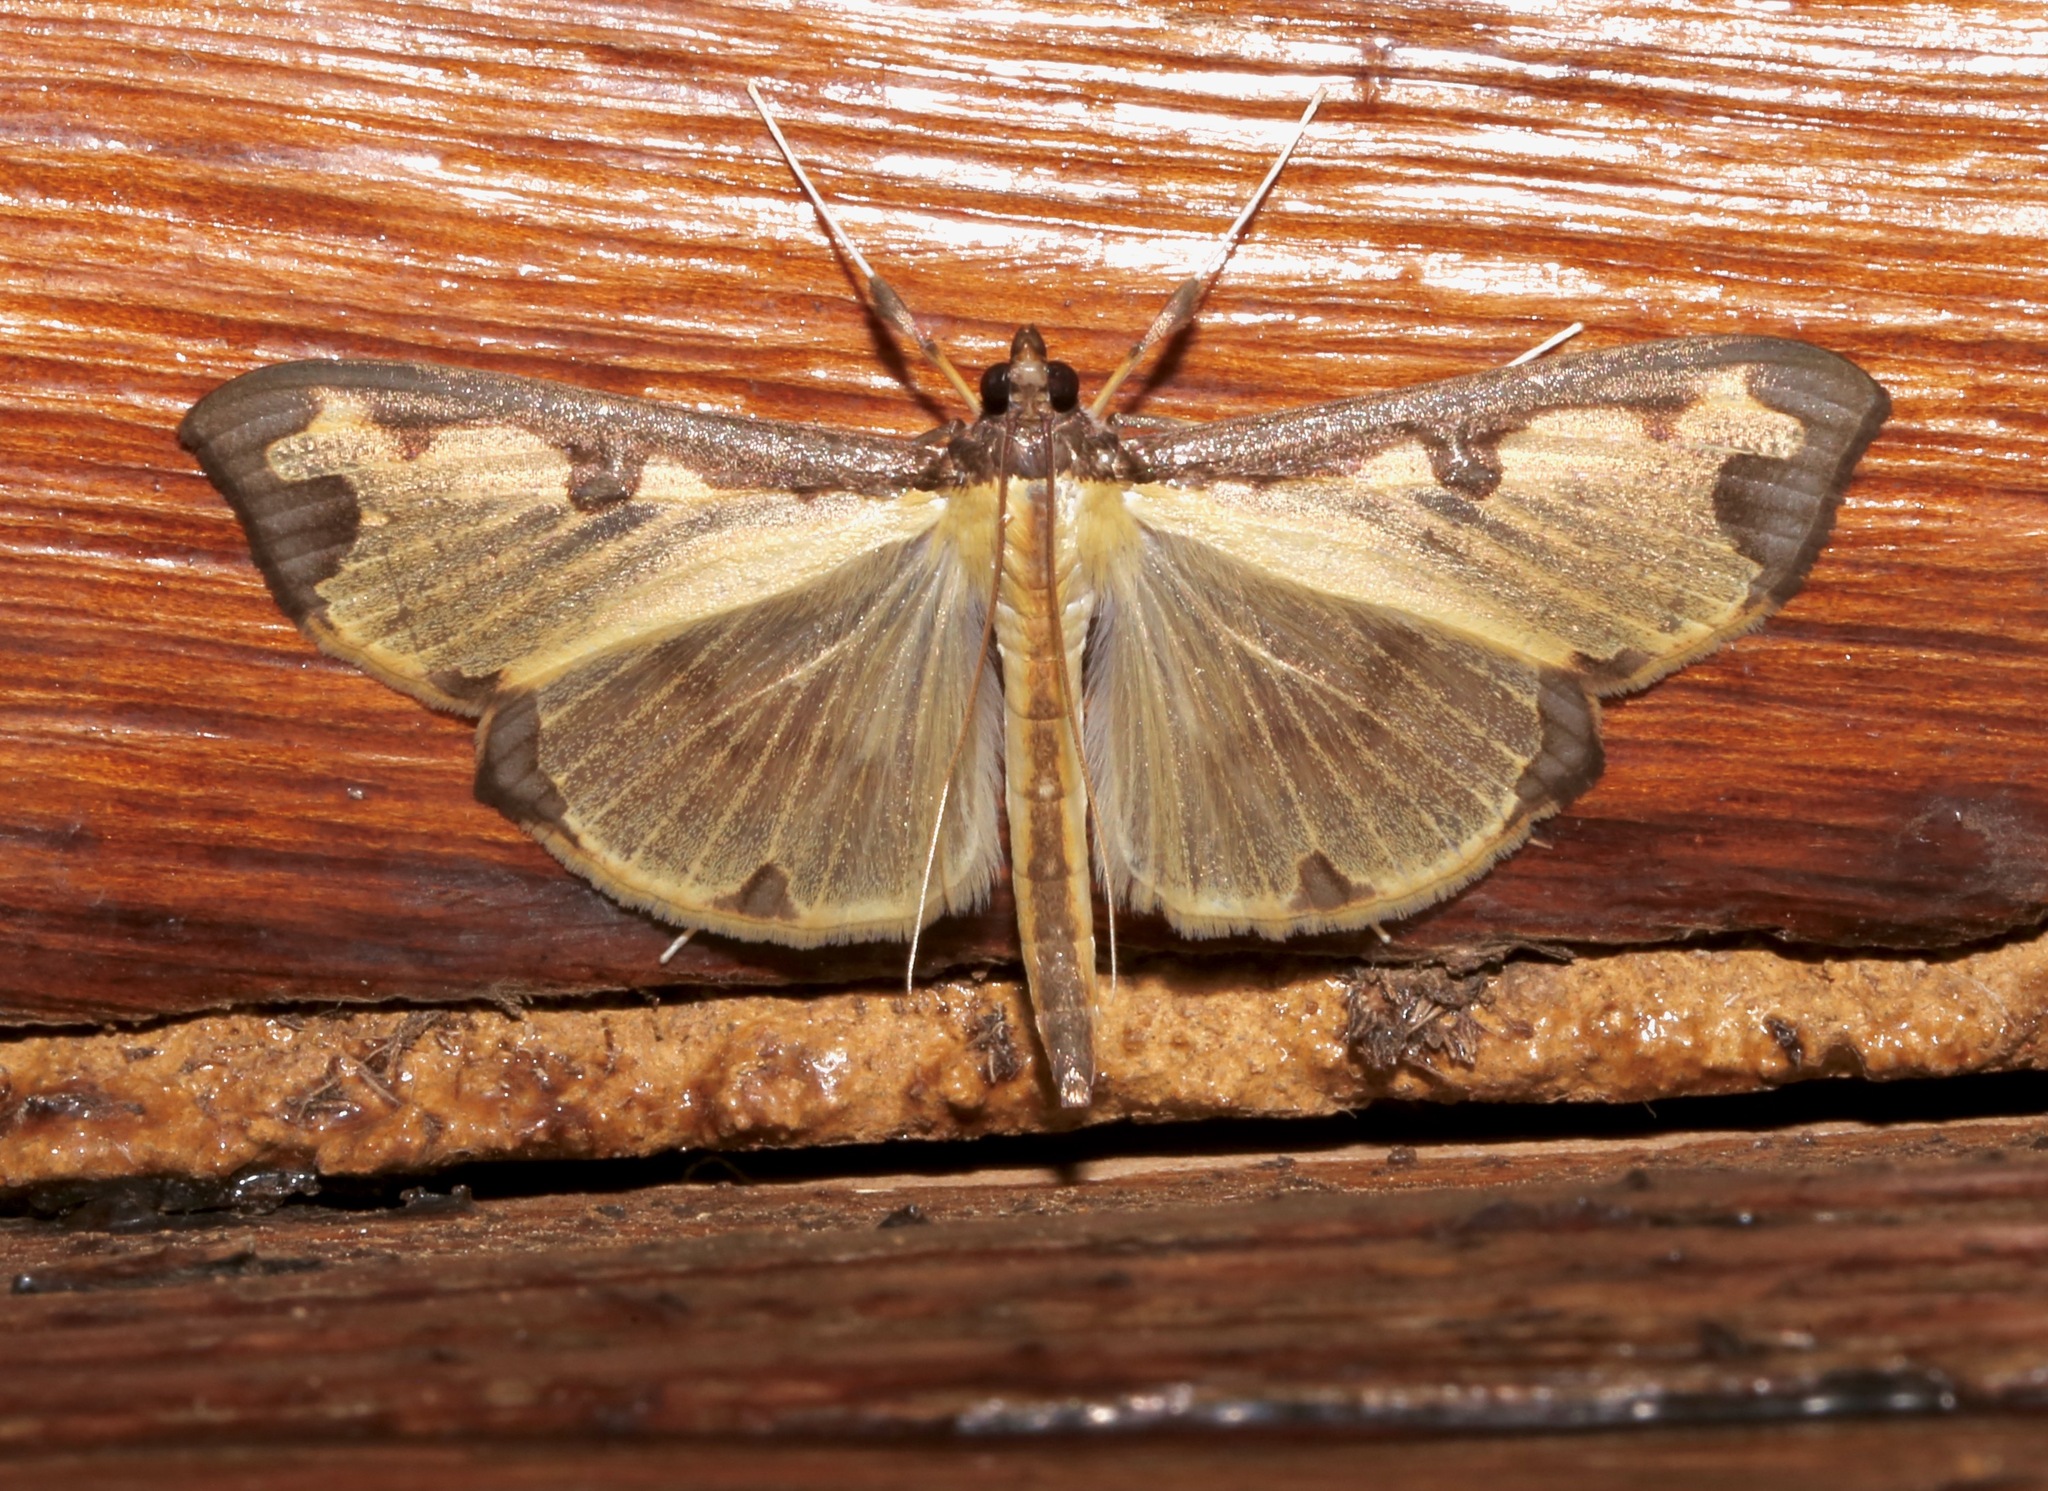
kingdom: Animalia
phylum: Arthropoda
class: Insecta
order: Lepidoptera
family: Crambidae
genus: Cadarena
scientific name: Cadarena pudoraria
